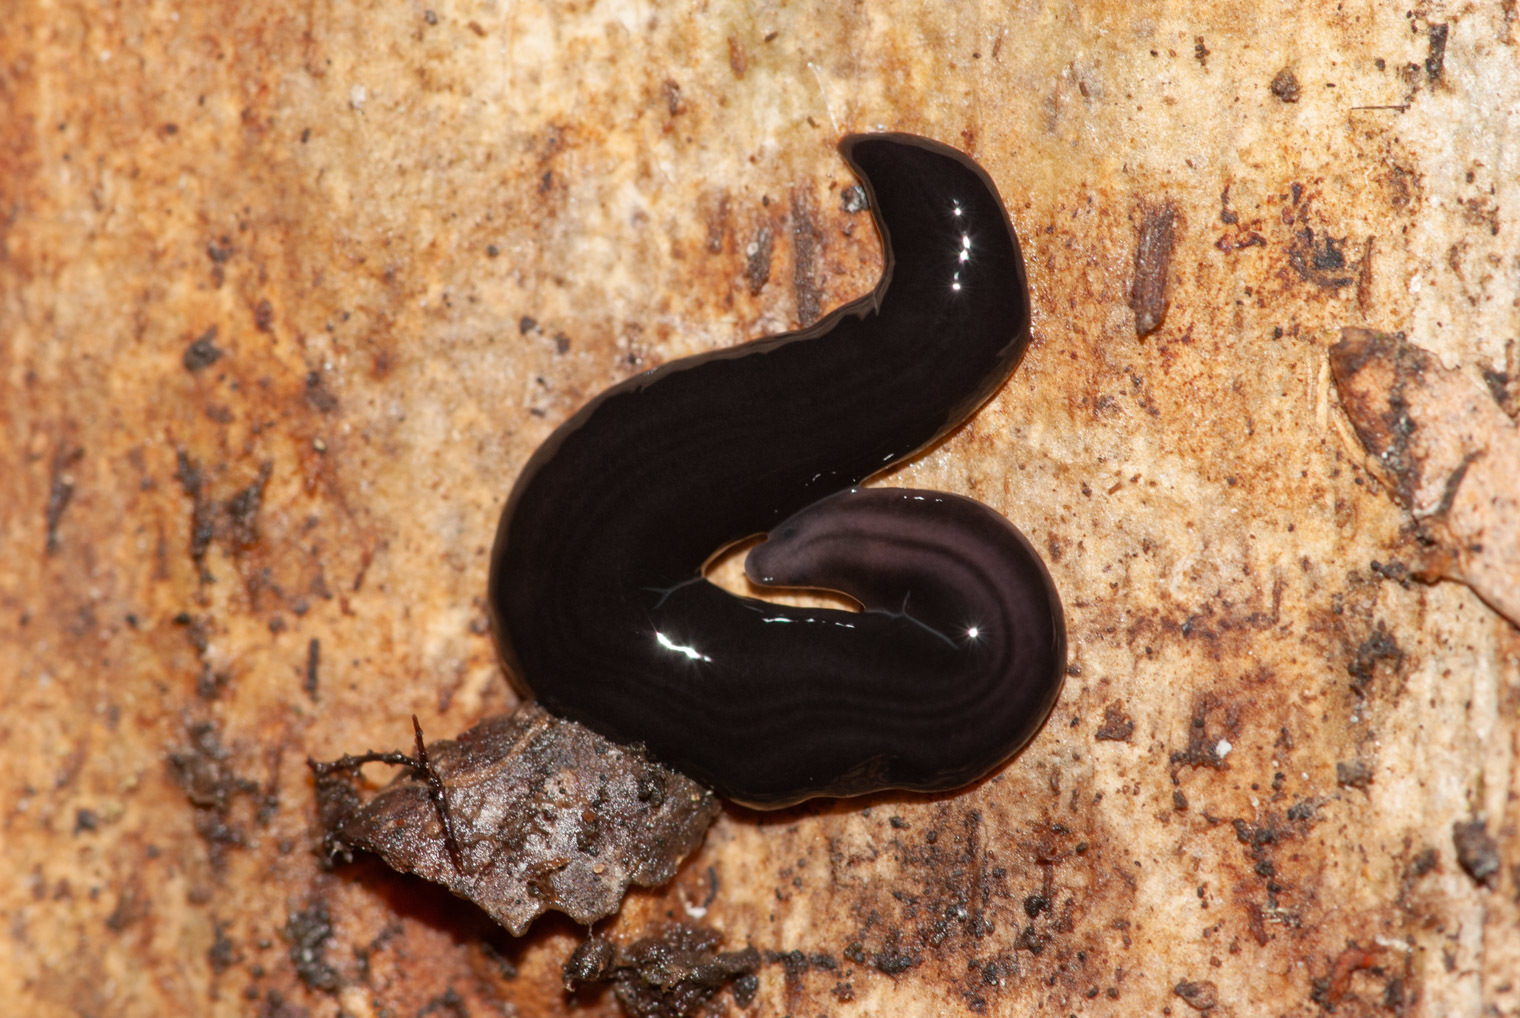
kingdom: Animalia
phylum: Platyhelminthes
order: Tricladida
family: Geoplanidae
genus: Anisorhynchodemus
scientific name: Anisorhynchodemus woodassimilis
